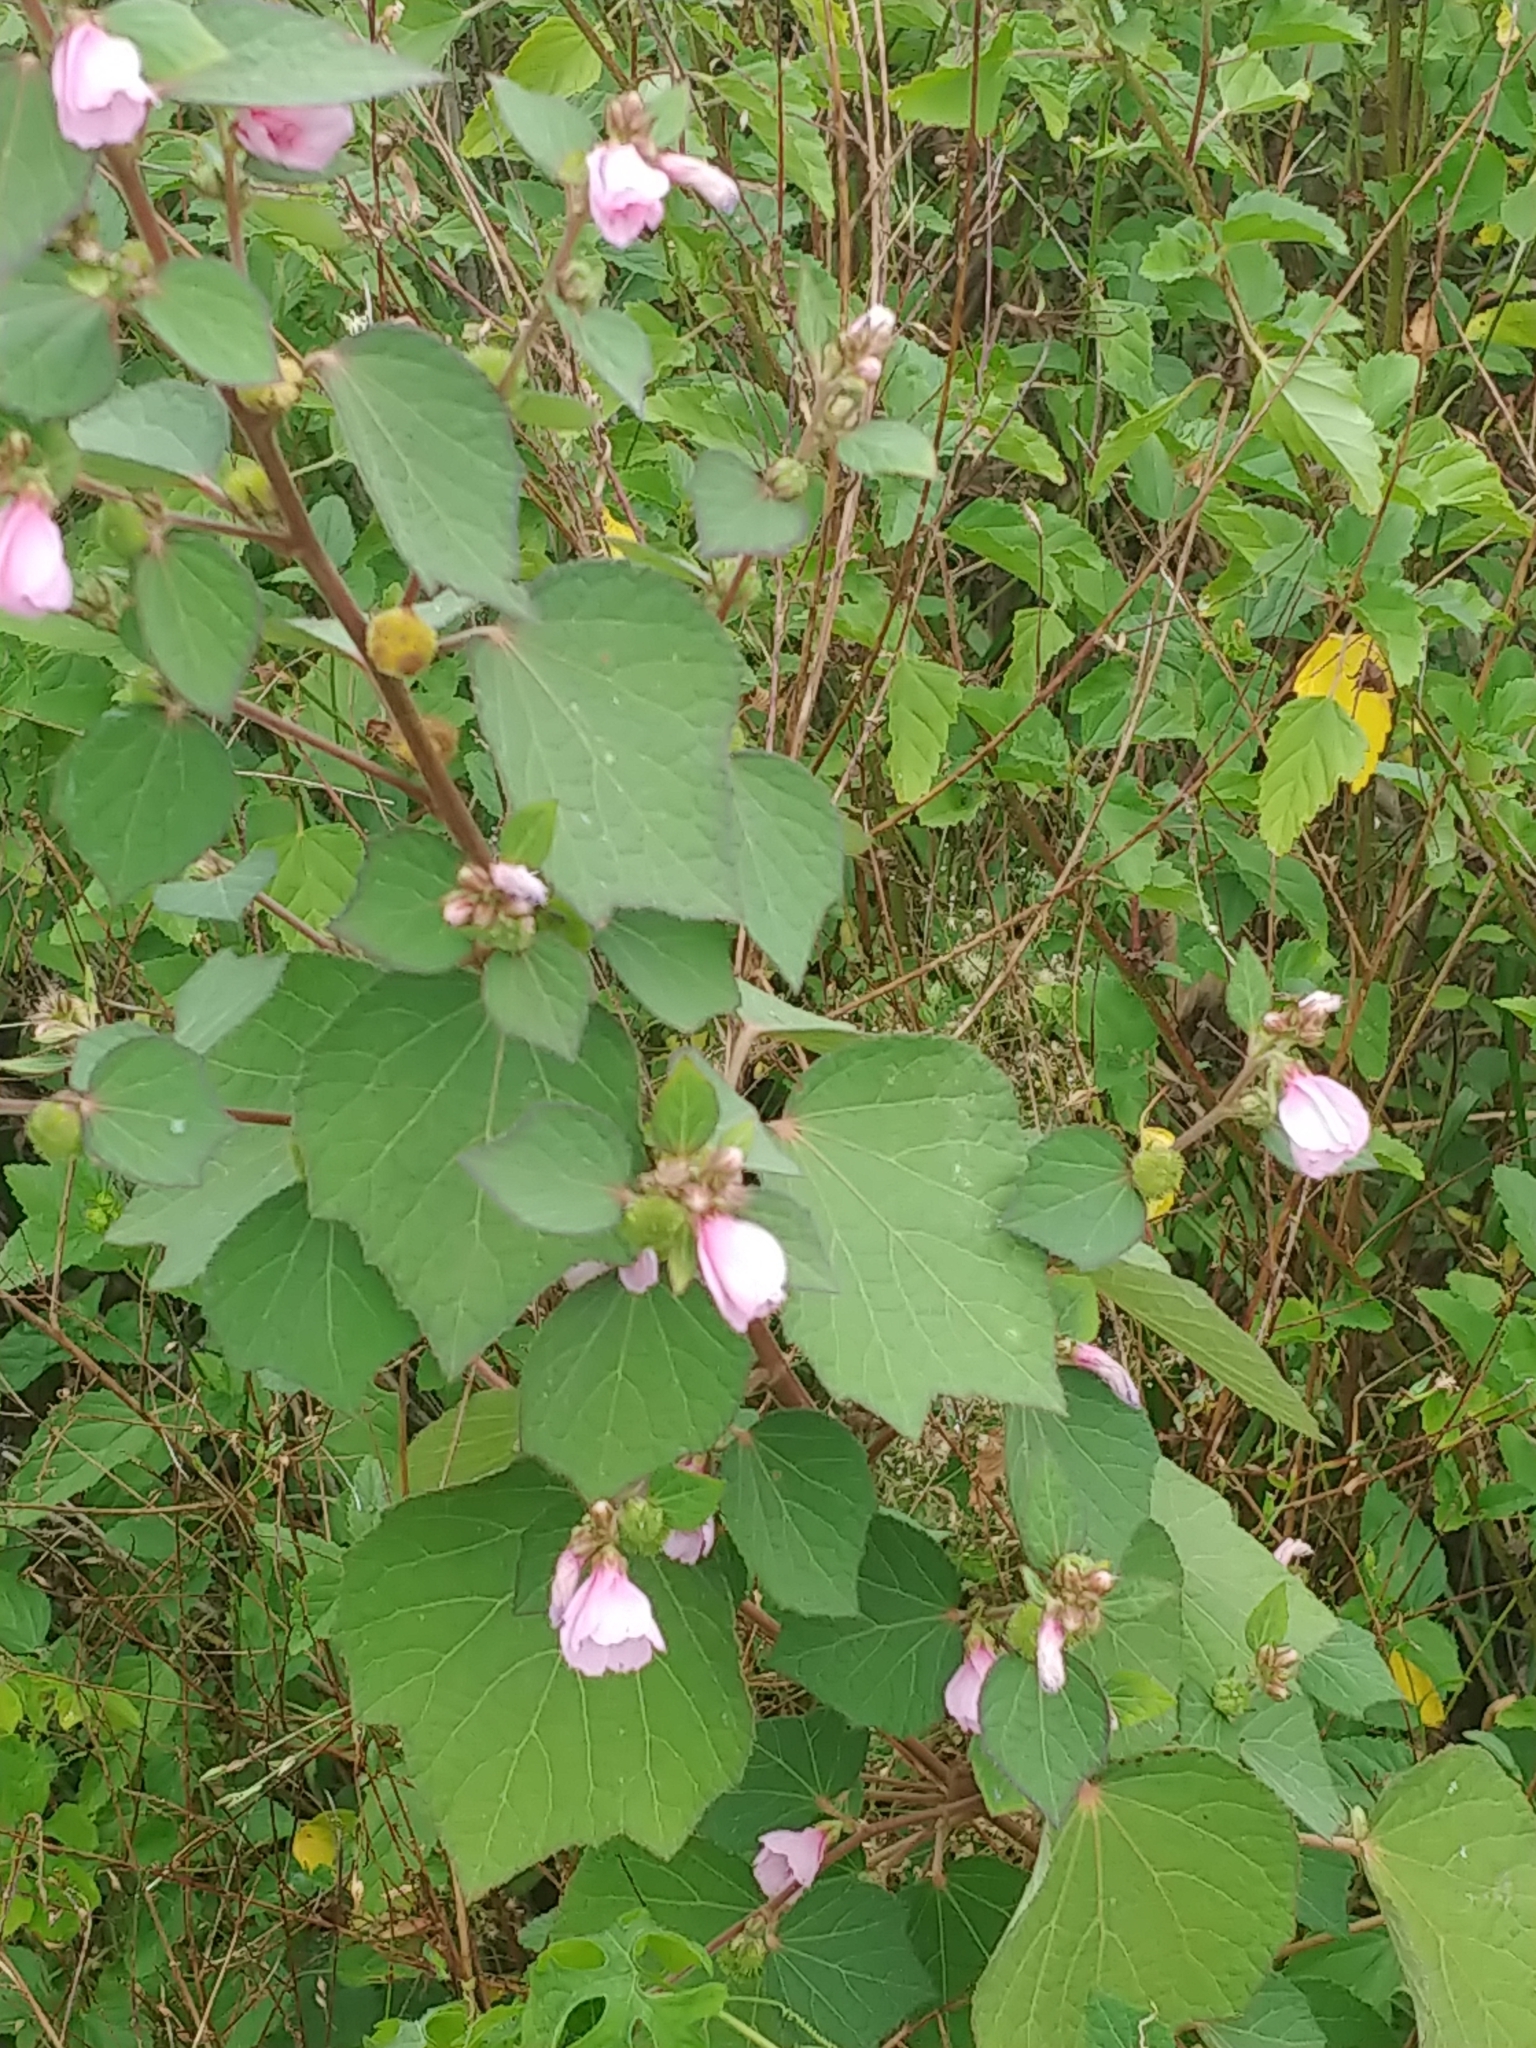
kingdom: Plantae
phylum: Tracheophyta
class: Magnoliopsida
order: Malvales
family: Malvaceae
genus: Urena
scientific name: Urena lobata
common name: Caesarweed
